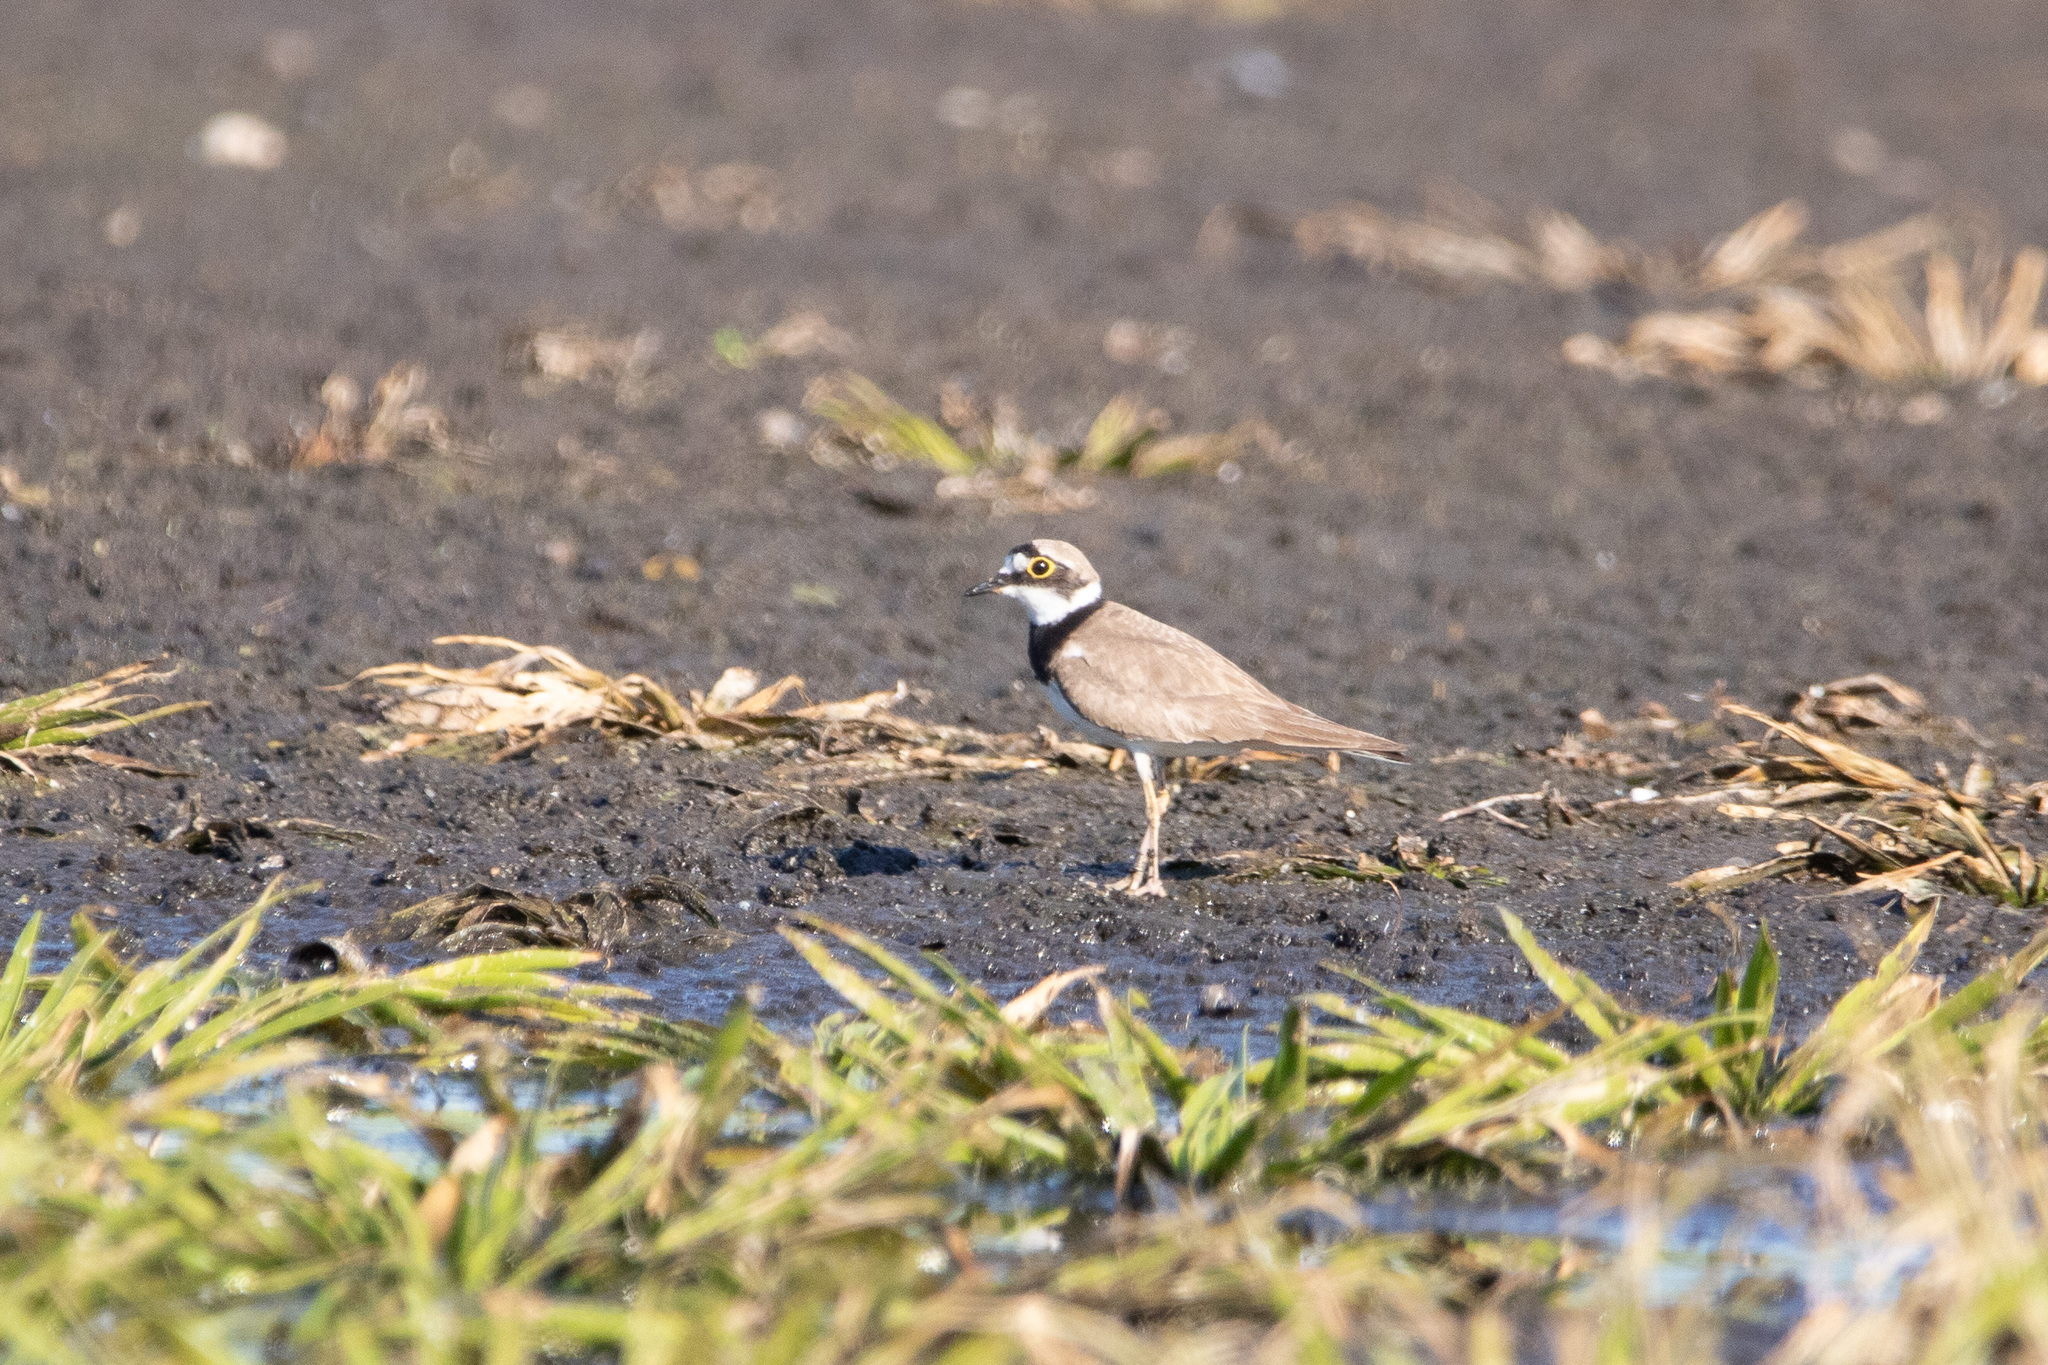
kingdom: Animalia
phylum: Chordata
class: Aves
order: Charadriiformes
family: Charadriidae
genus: Charadrius
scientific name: Charadrius dubius
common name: Little ringed plover
